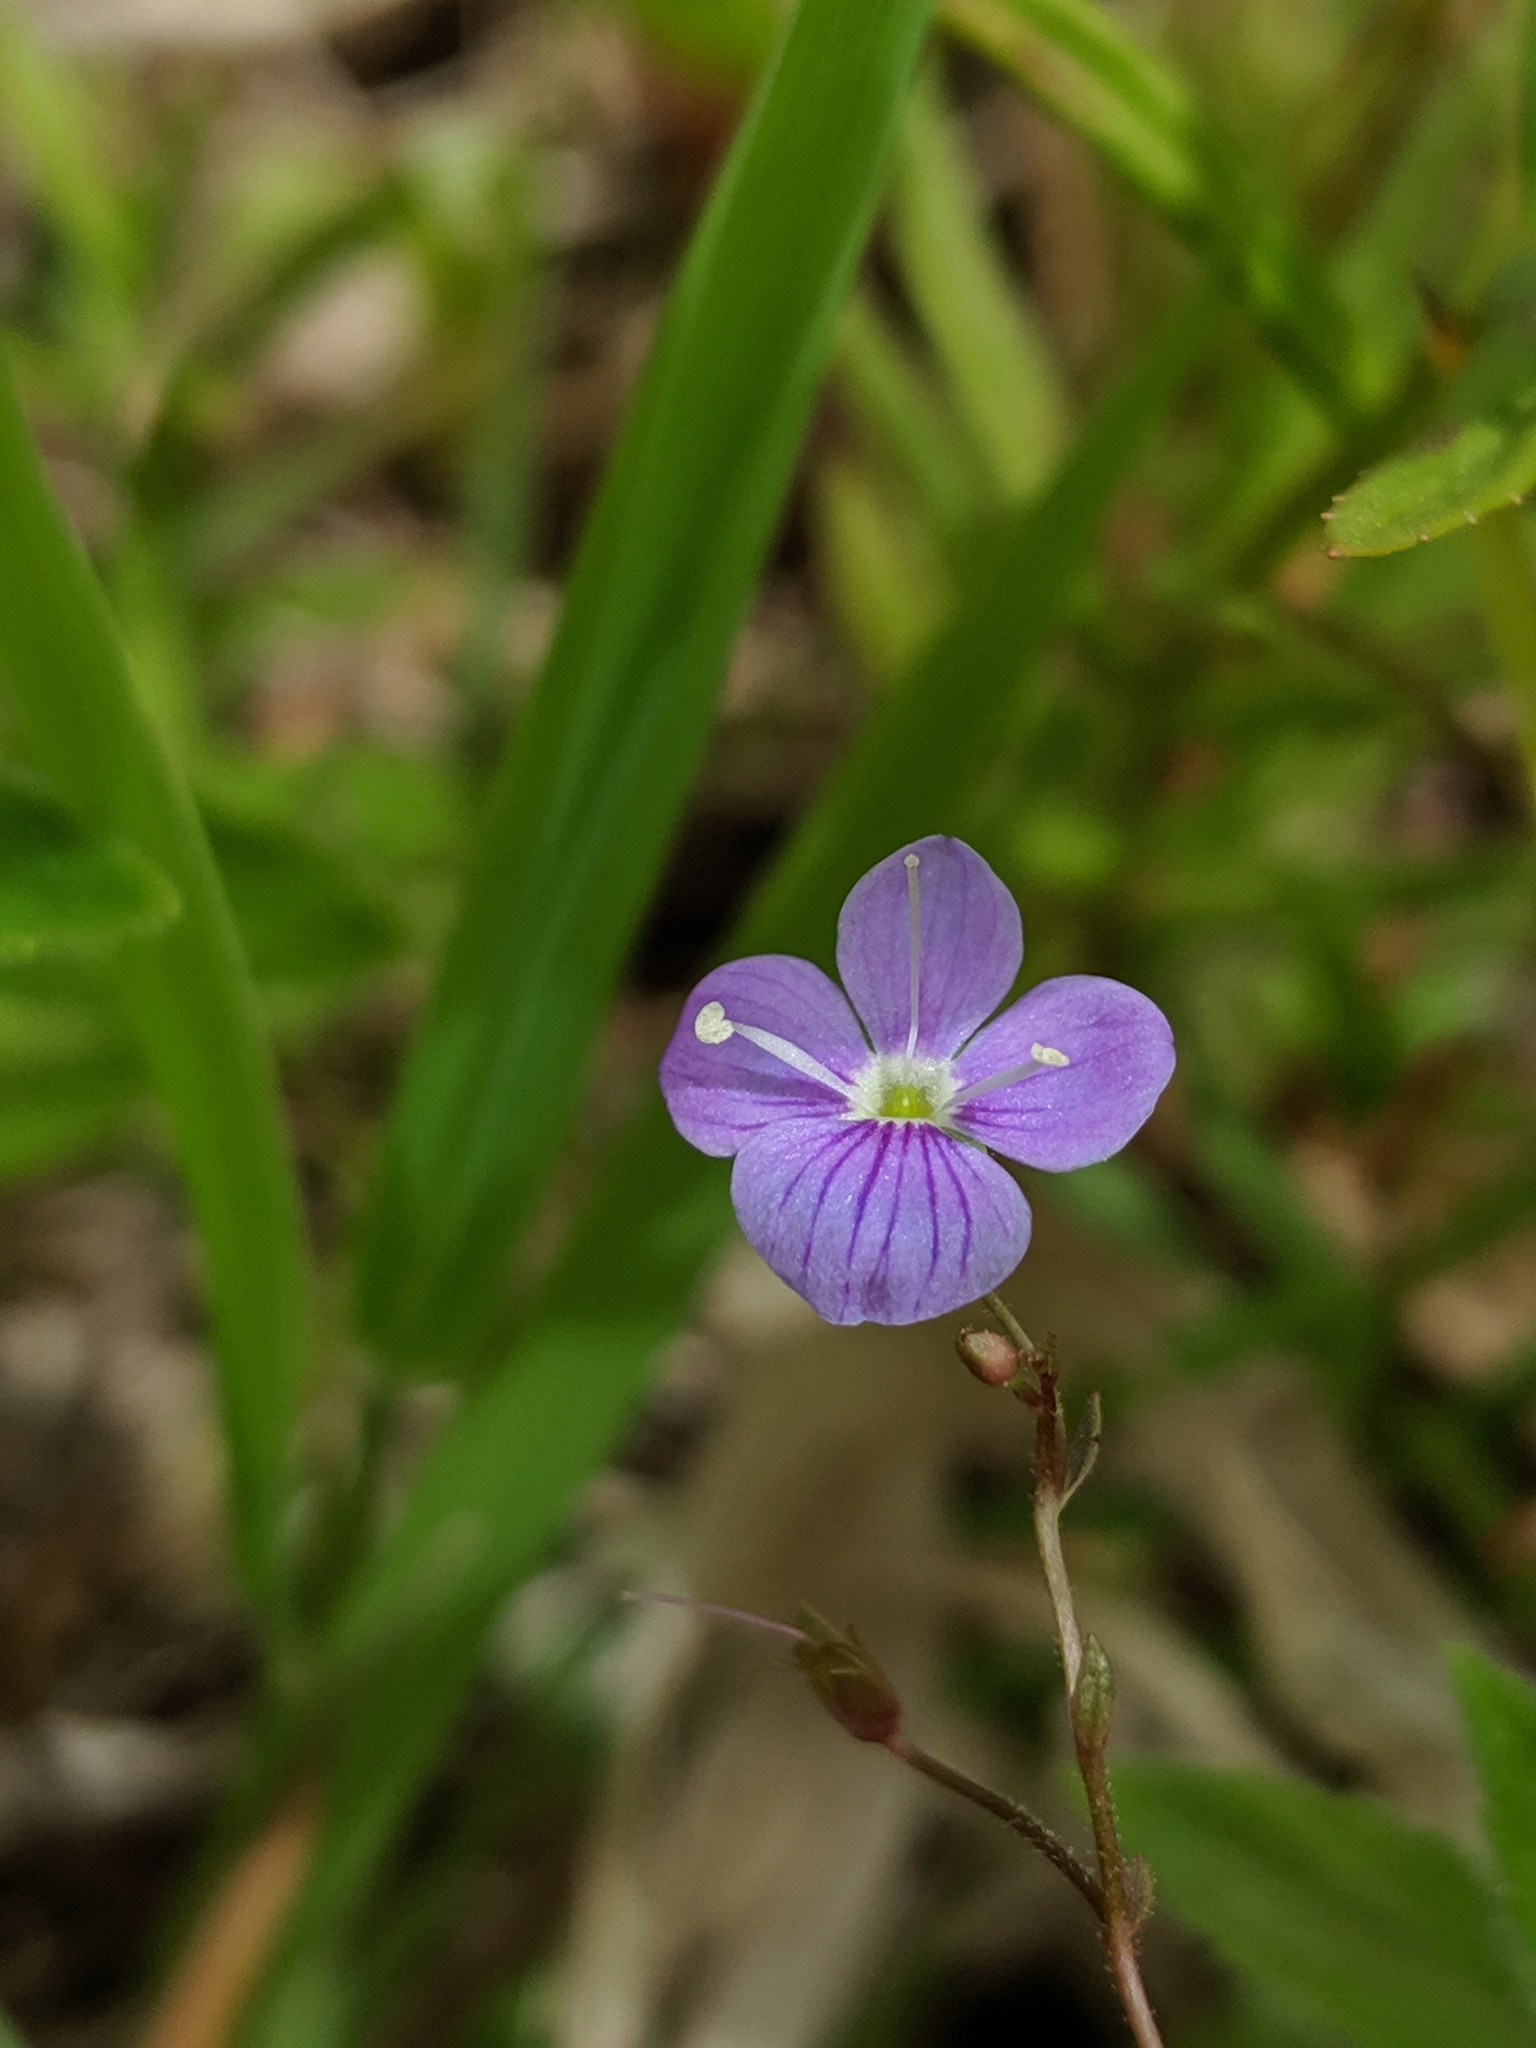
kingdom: Plantae
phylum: Tracheophyta
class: Magnoliopsida
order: Lamiales
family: Plantaginaceae
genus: Veronica
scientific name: Veronica scutellata
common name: Marsh speedwell
